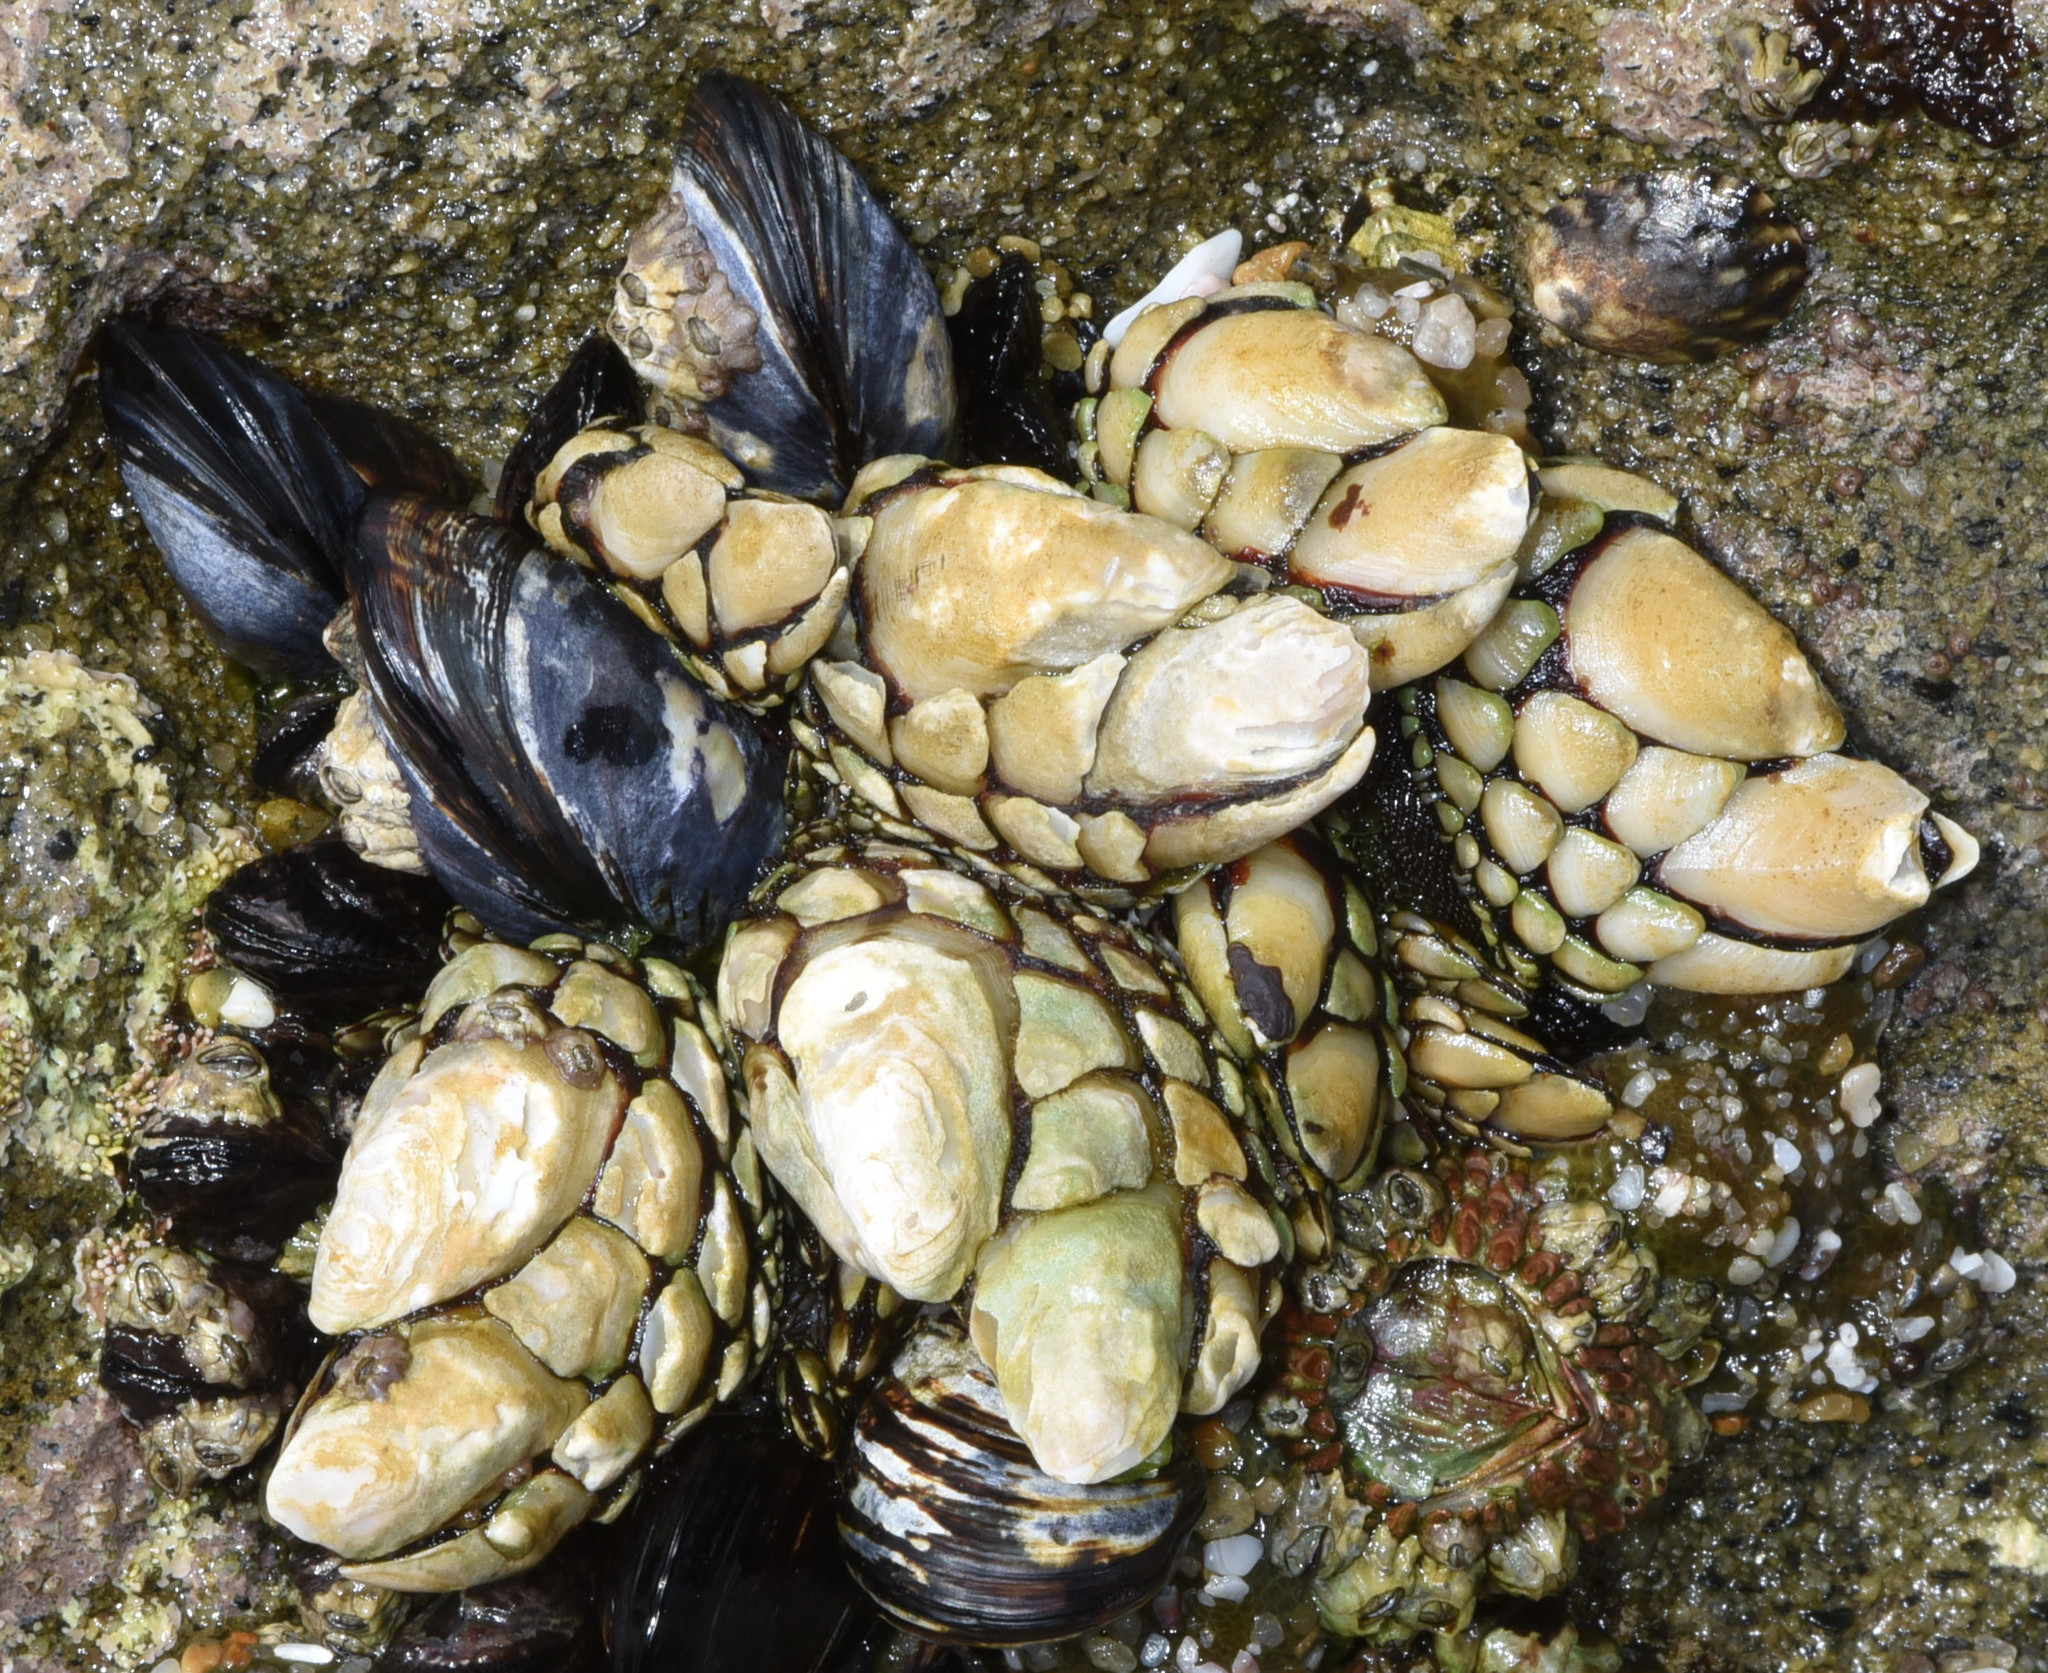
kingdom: Animalia
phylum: Arthropoda
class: Maxillopoda
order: Pedunculata
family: Pollicipedidae
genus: Pollicipes
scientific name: Pollicipes polymerus
